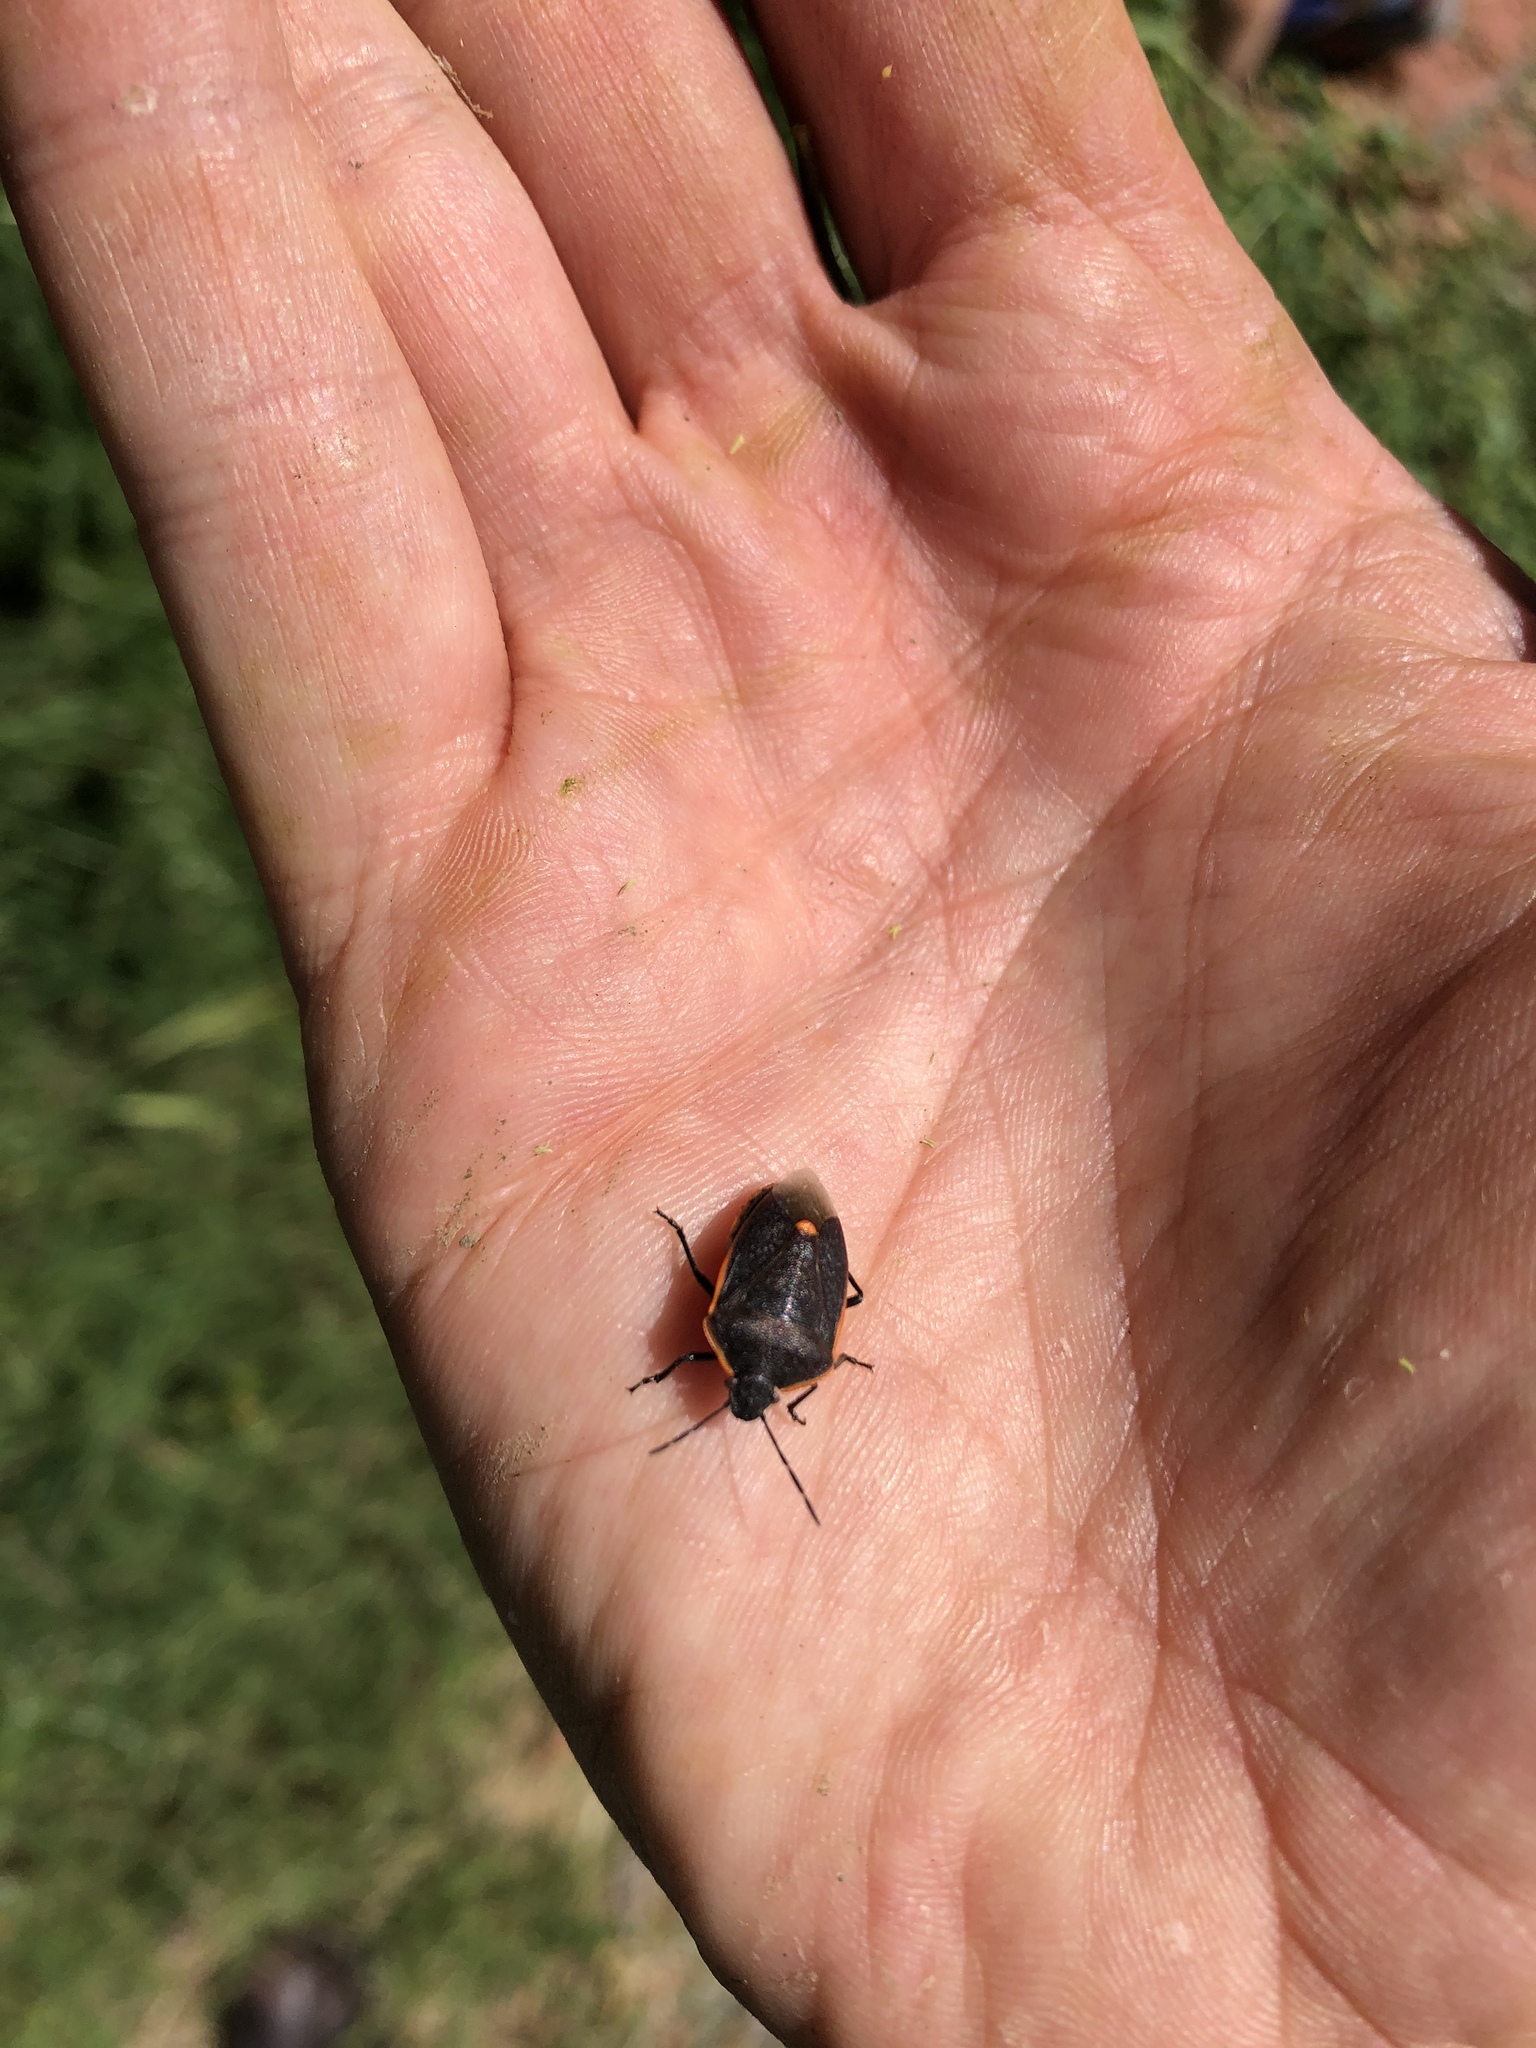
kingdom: Animalia
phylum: Arthropoda
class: Insecta
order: Hemiptera
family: Pentatomidae
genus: Chlorochroa
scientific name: Chlorochroa ligata
